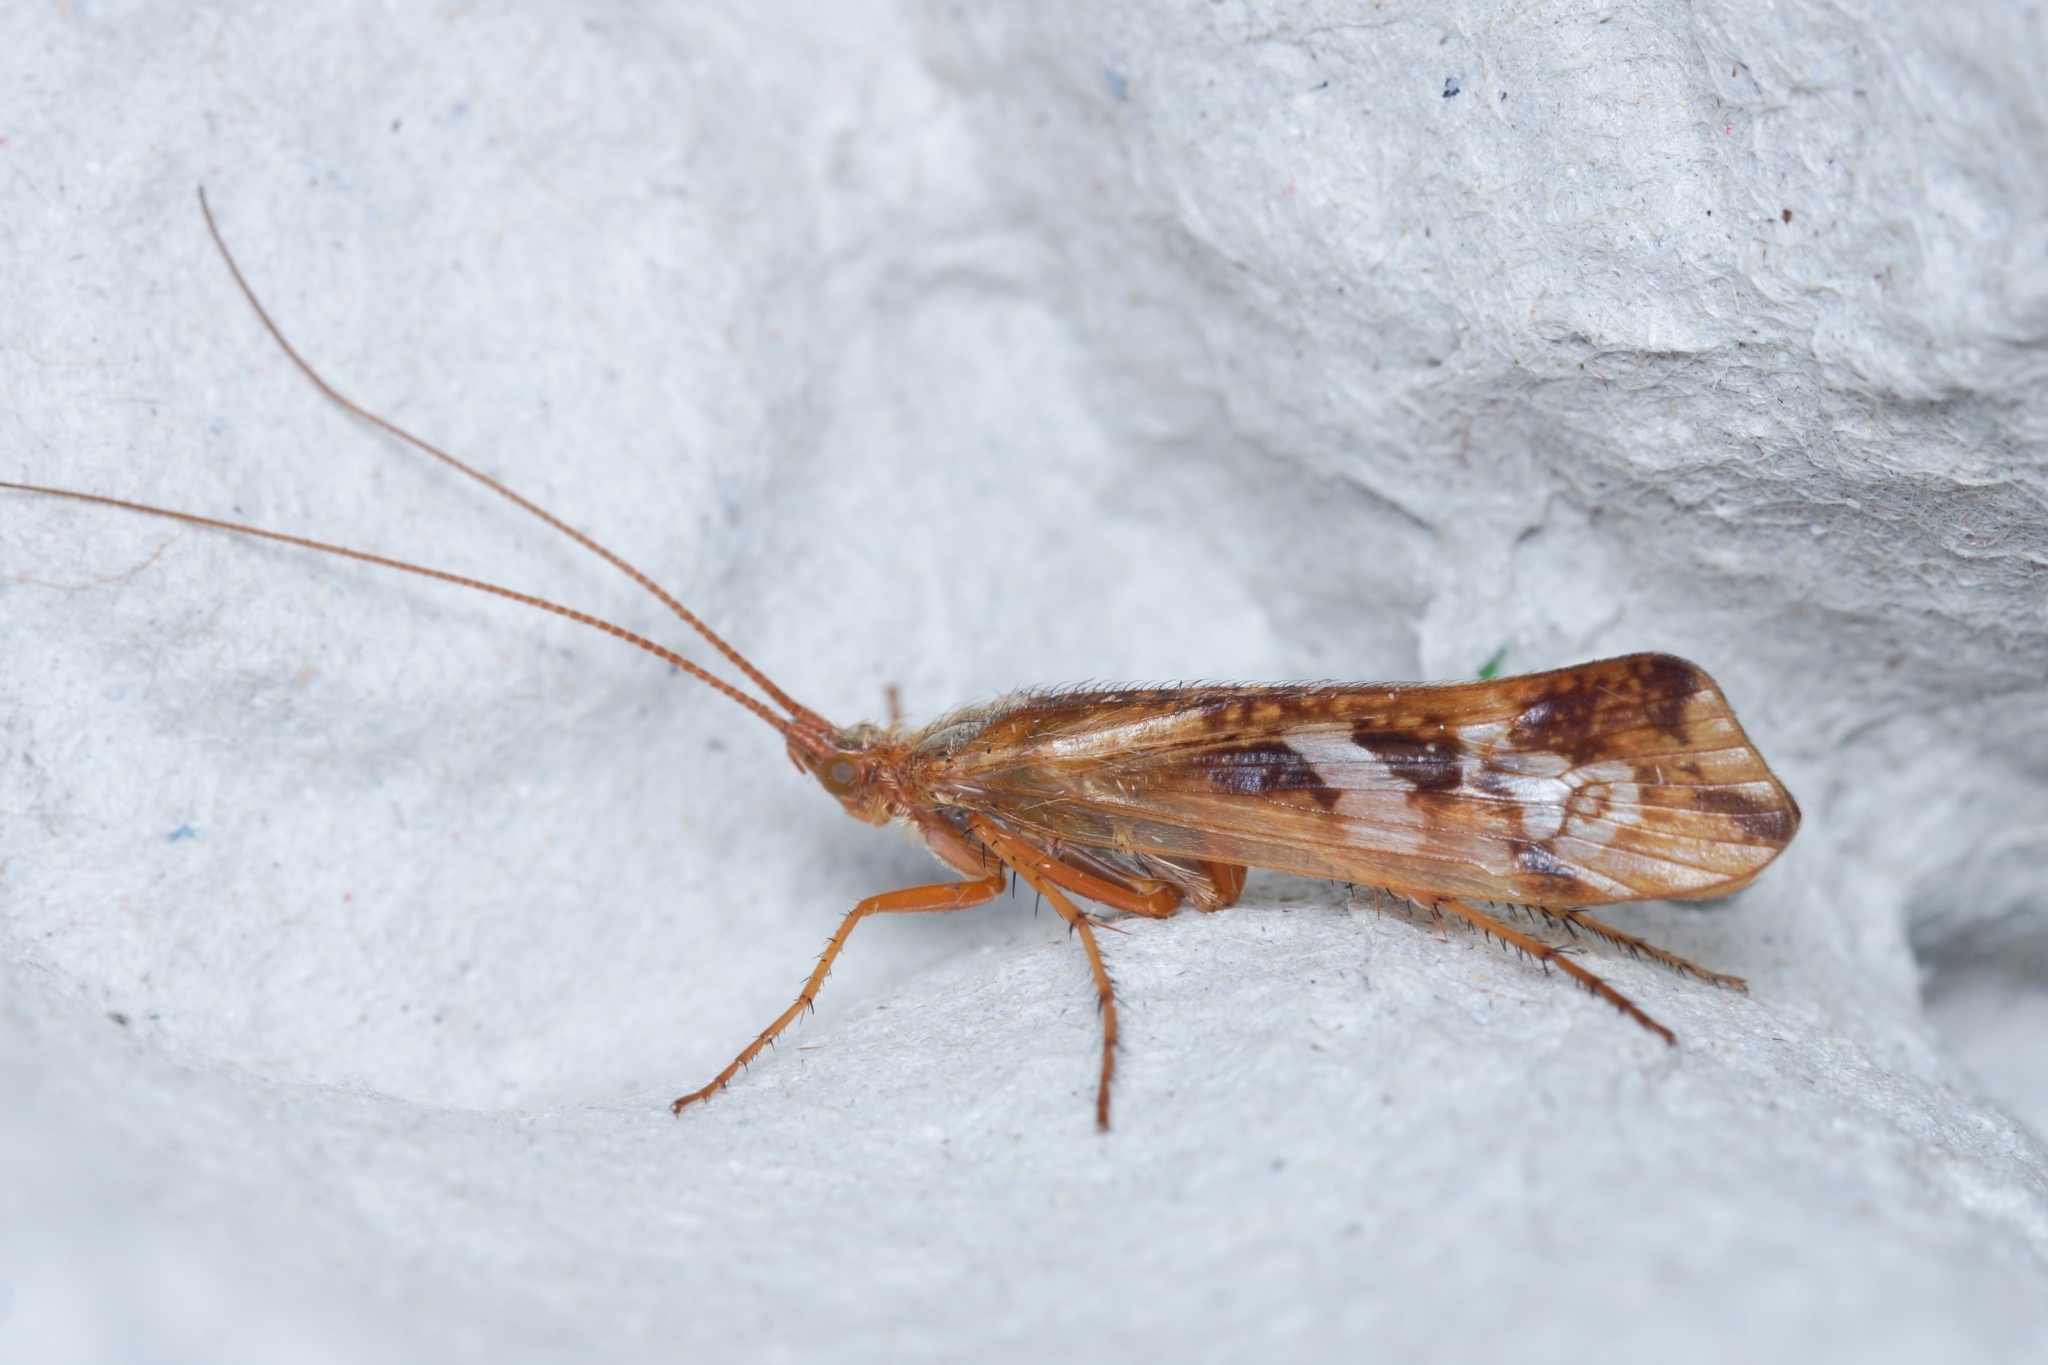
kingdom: Animalia
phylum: Arthropoda
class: Insecta
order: Trichoptera
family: Limnephilidae
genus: Limnephilus
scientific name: Limnephilus lunatus
